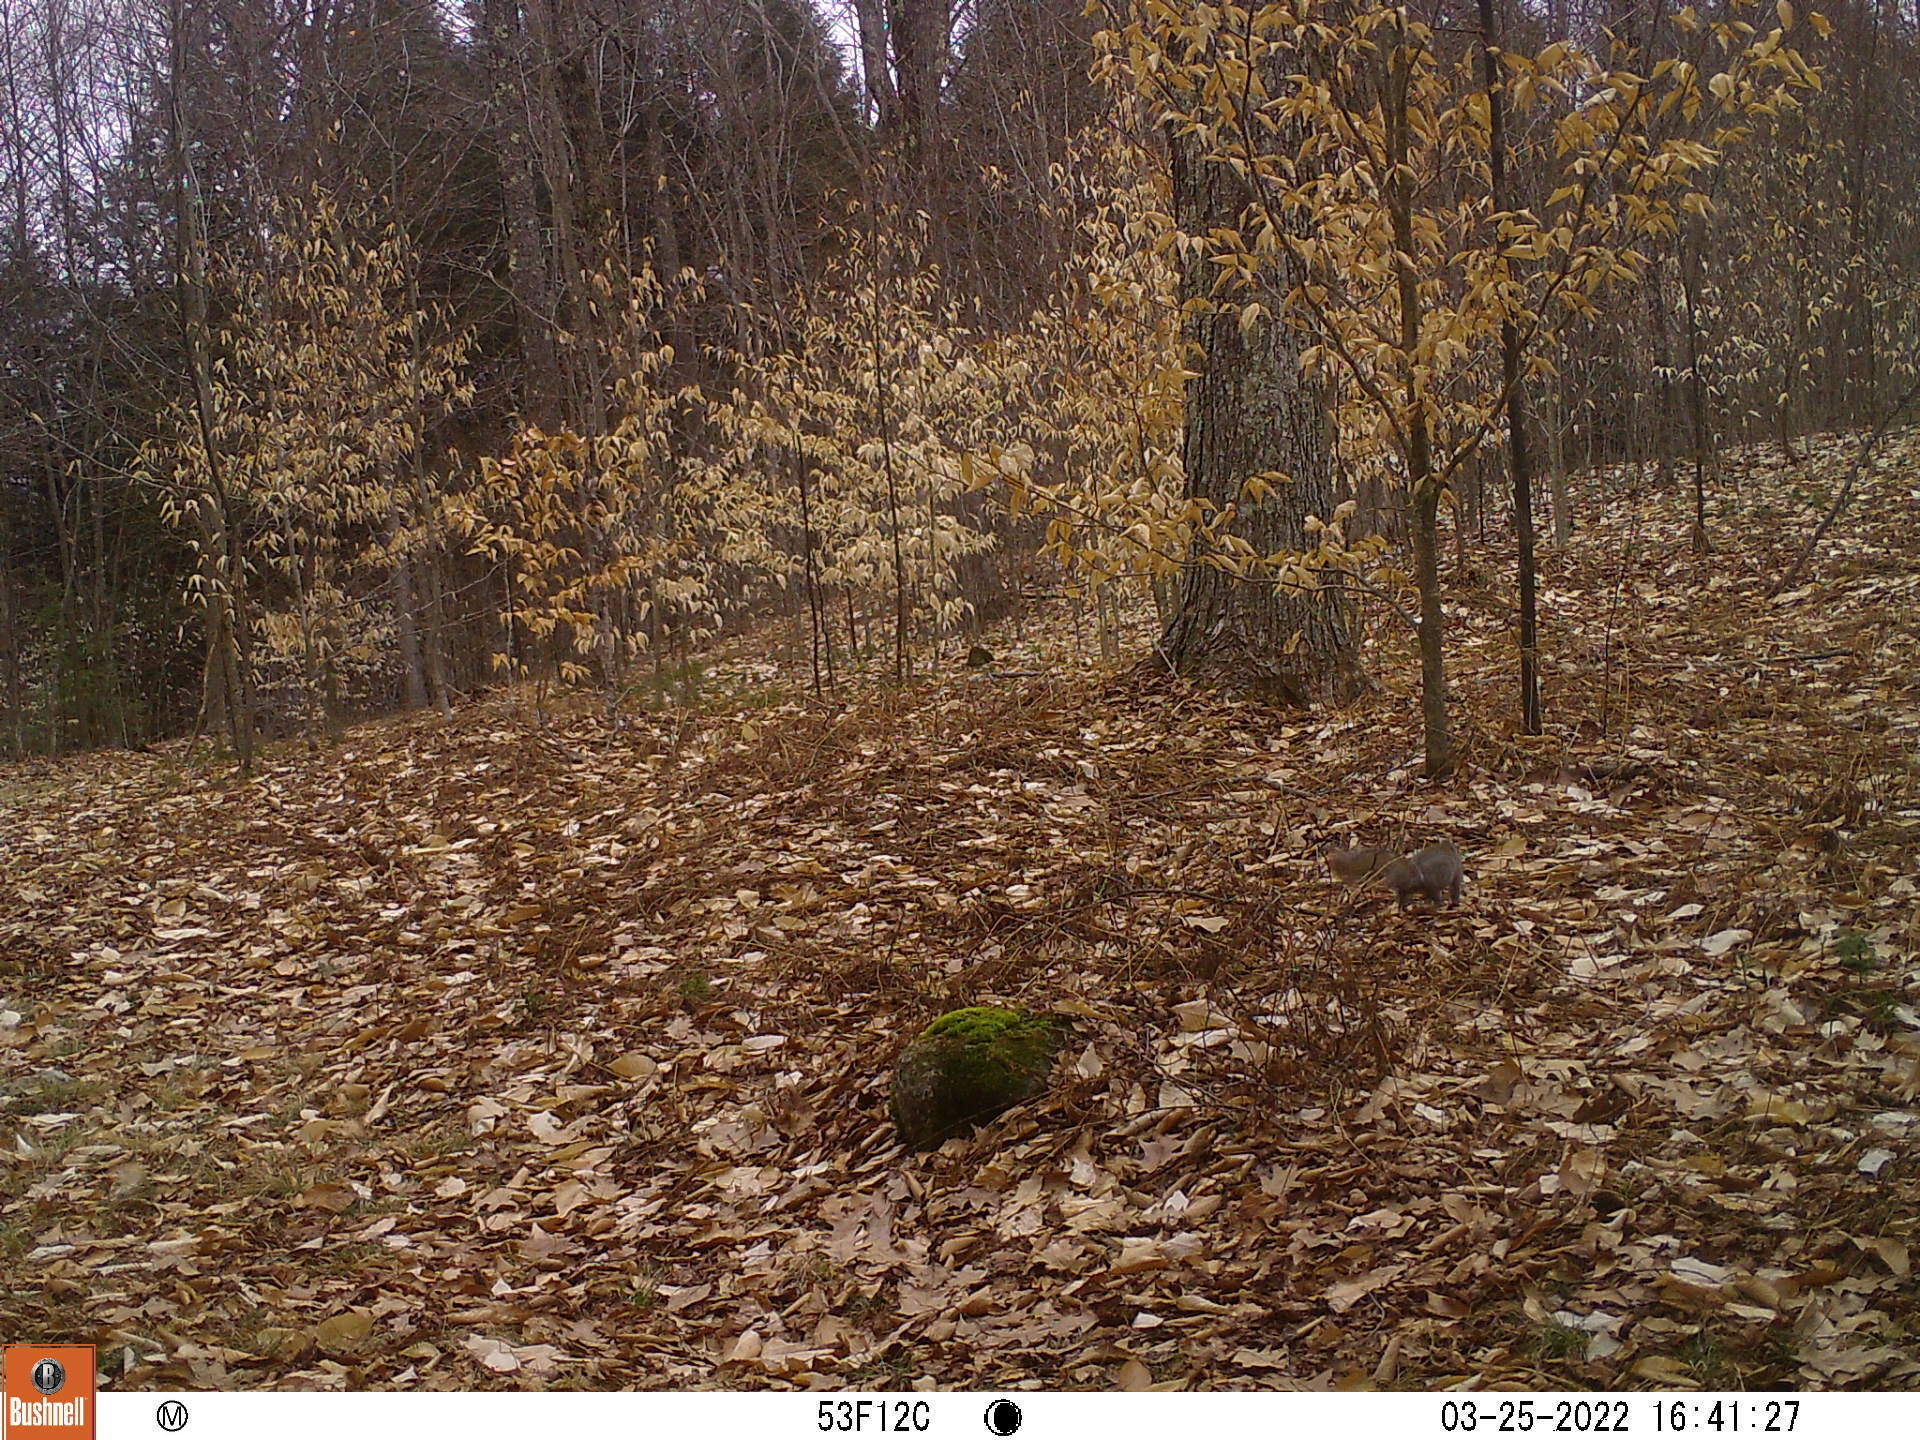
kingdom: Animalia
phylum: Chordata
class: Mammalia
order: Rodentia
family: Sciuridae
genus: Sciurus
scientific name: Sciurus carolinensis
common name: Eastern gray squirrel
